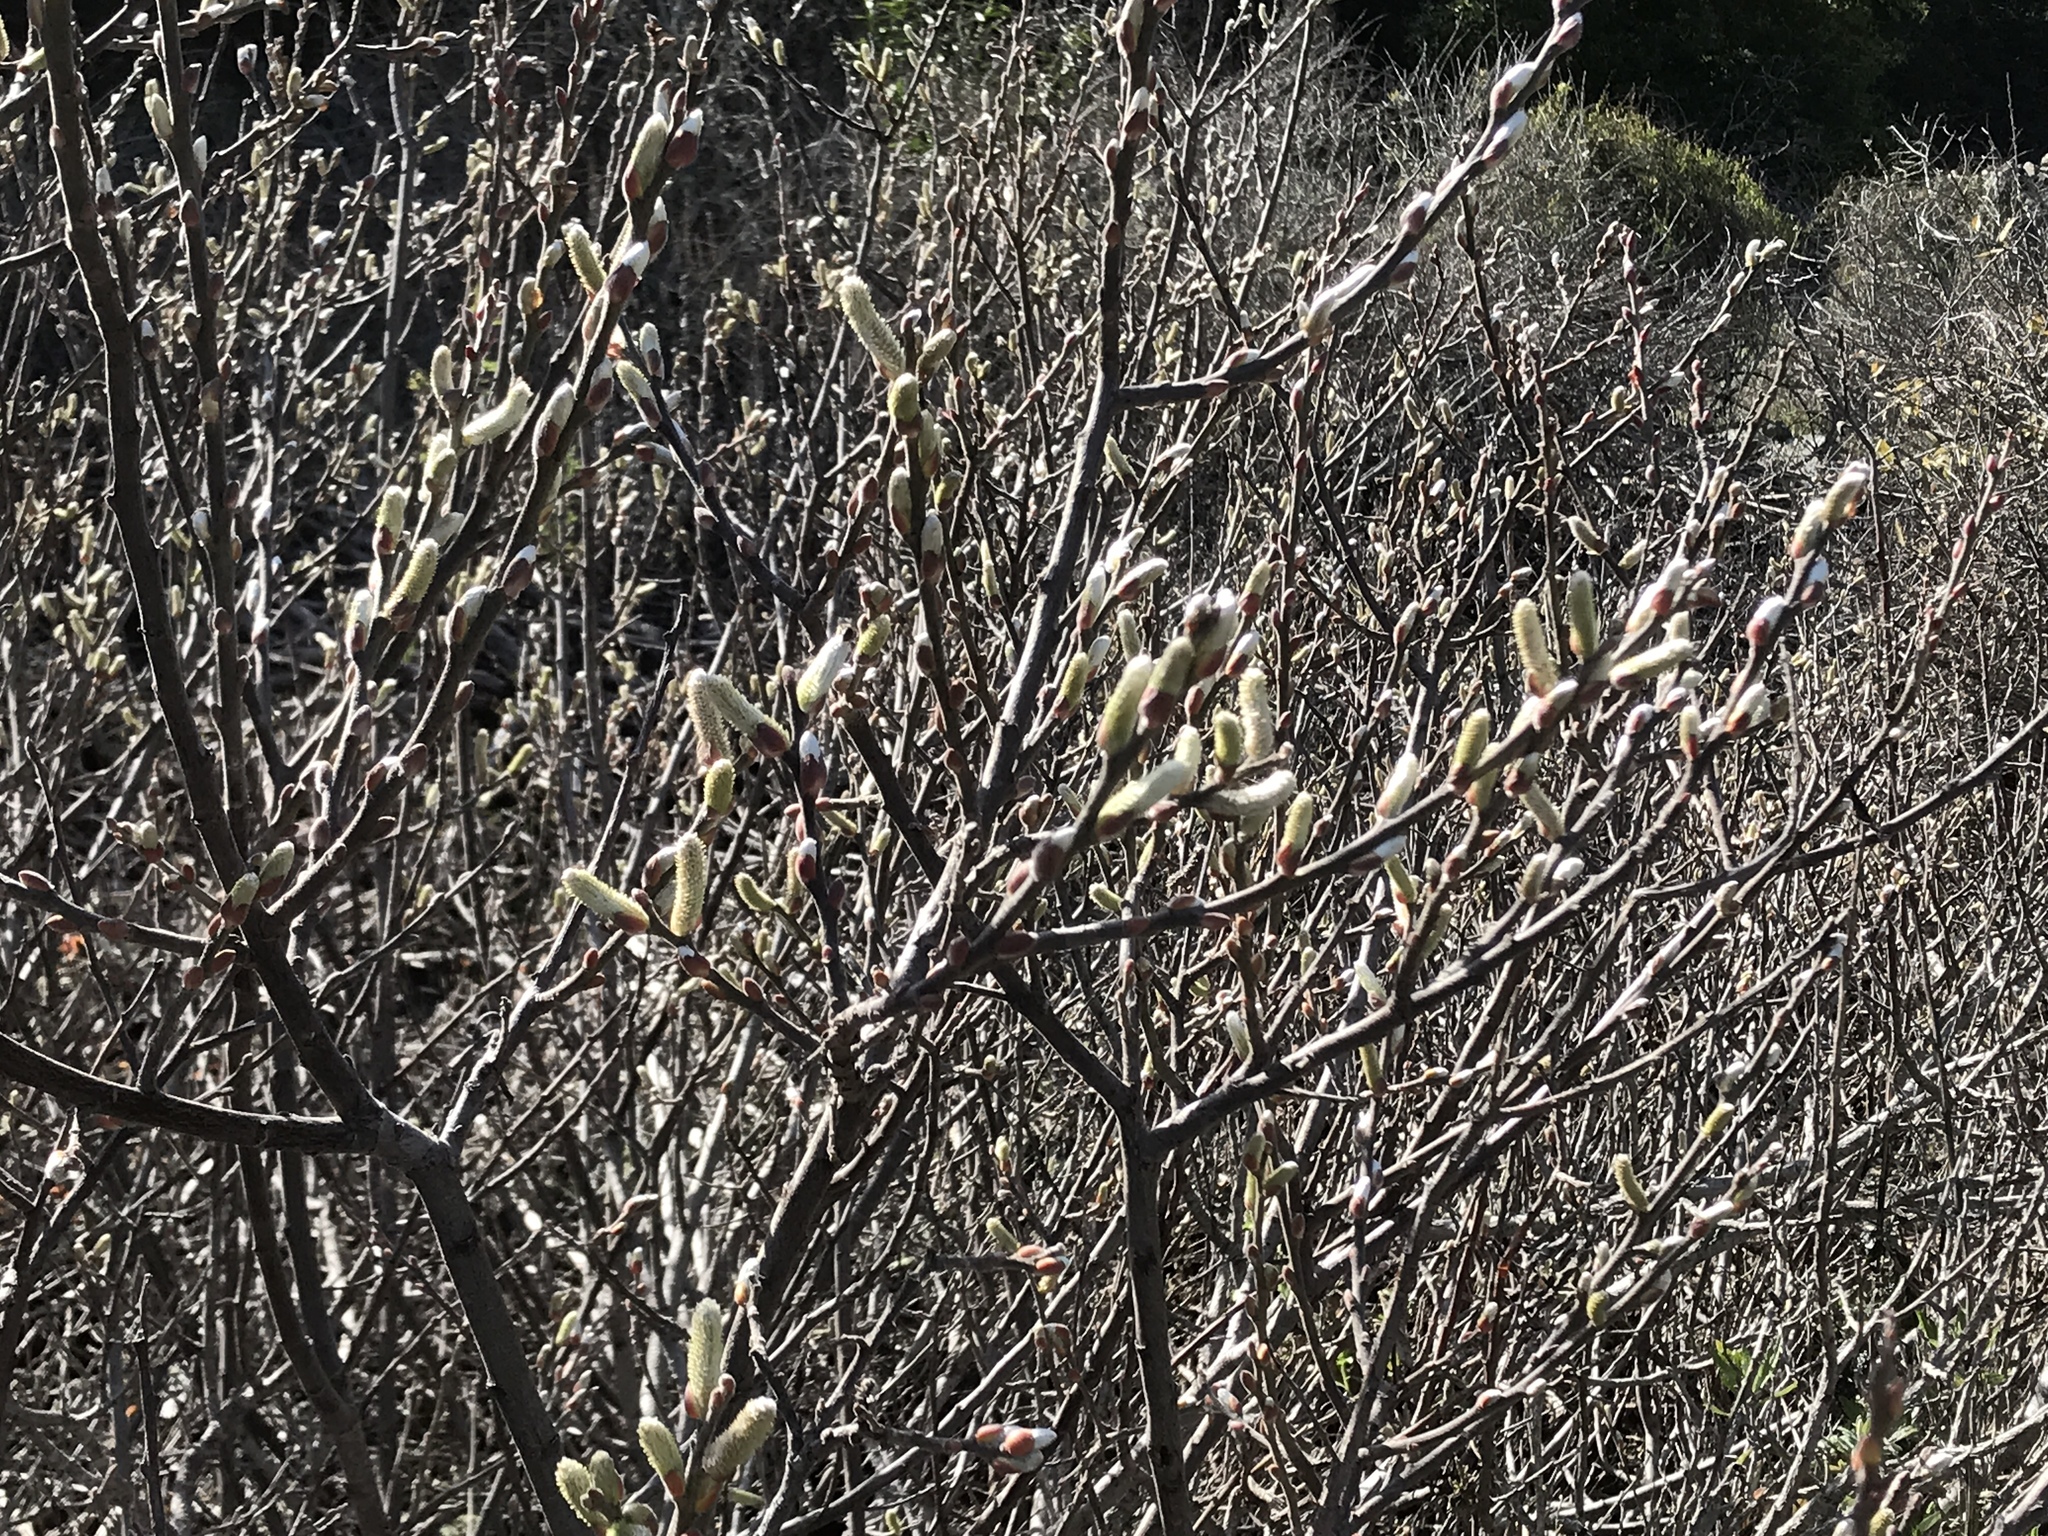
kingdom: Plantae
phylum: Tracheophyta
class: Magnoliopsida
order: Malpighiales
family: Salicaceae
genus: Salix
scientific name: Salix breweri
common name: Brewer’s willow
